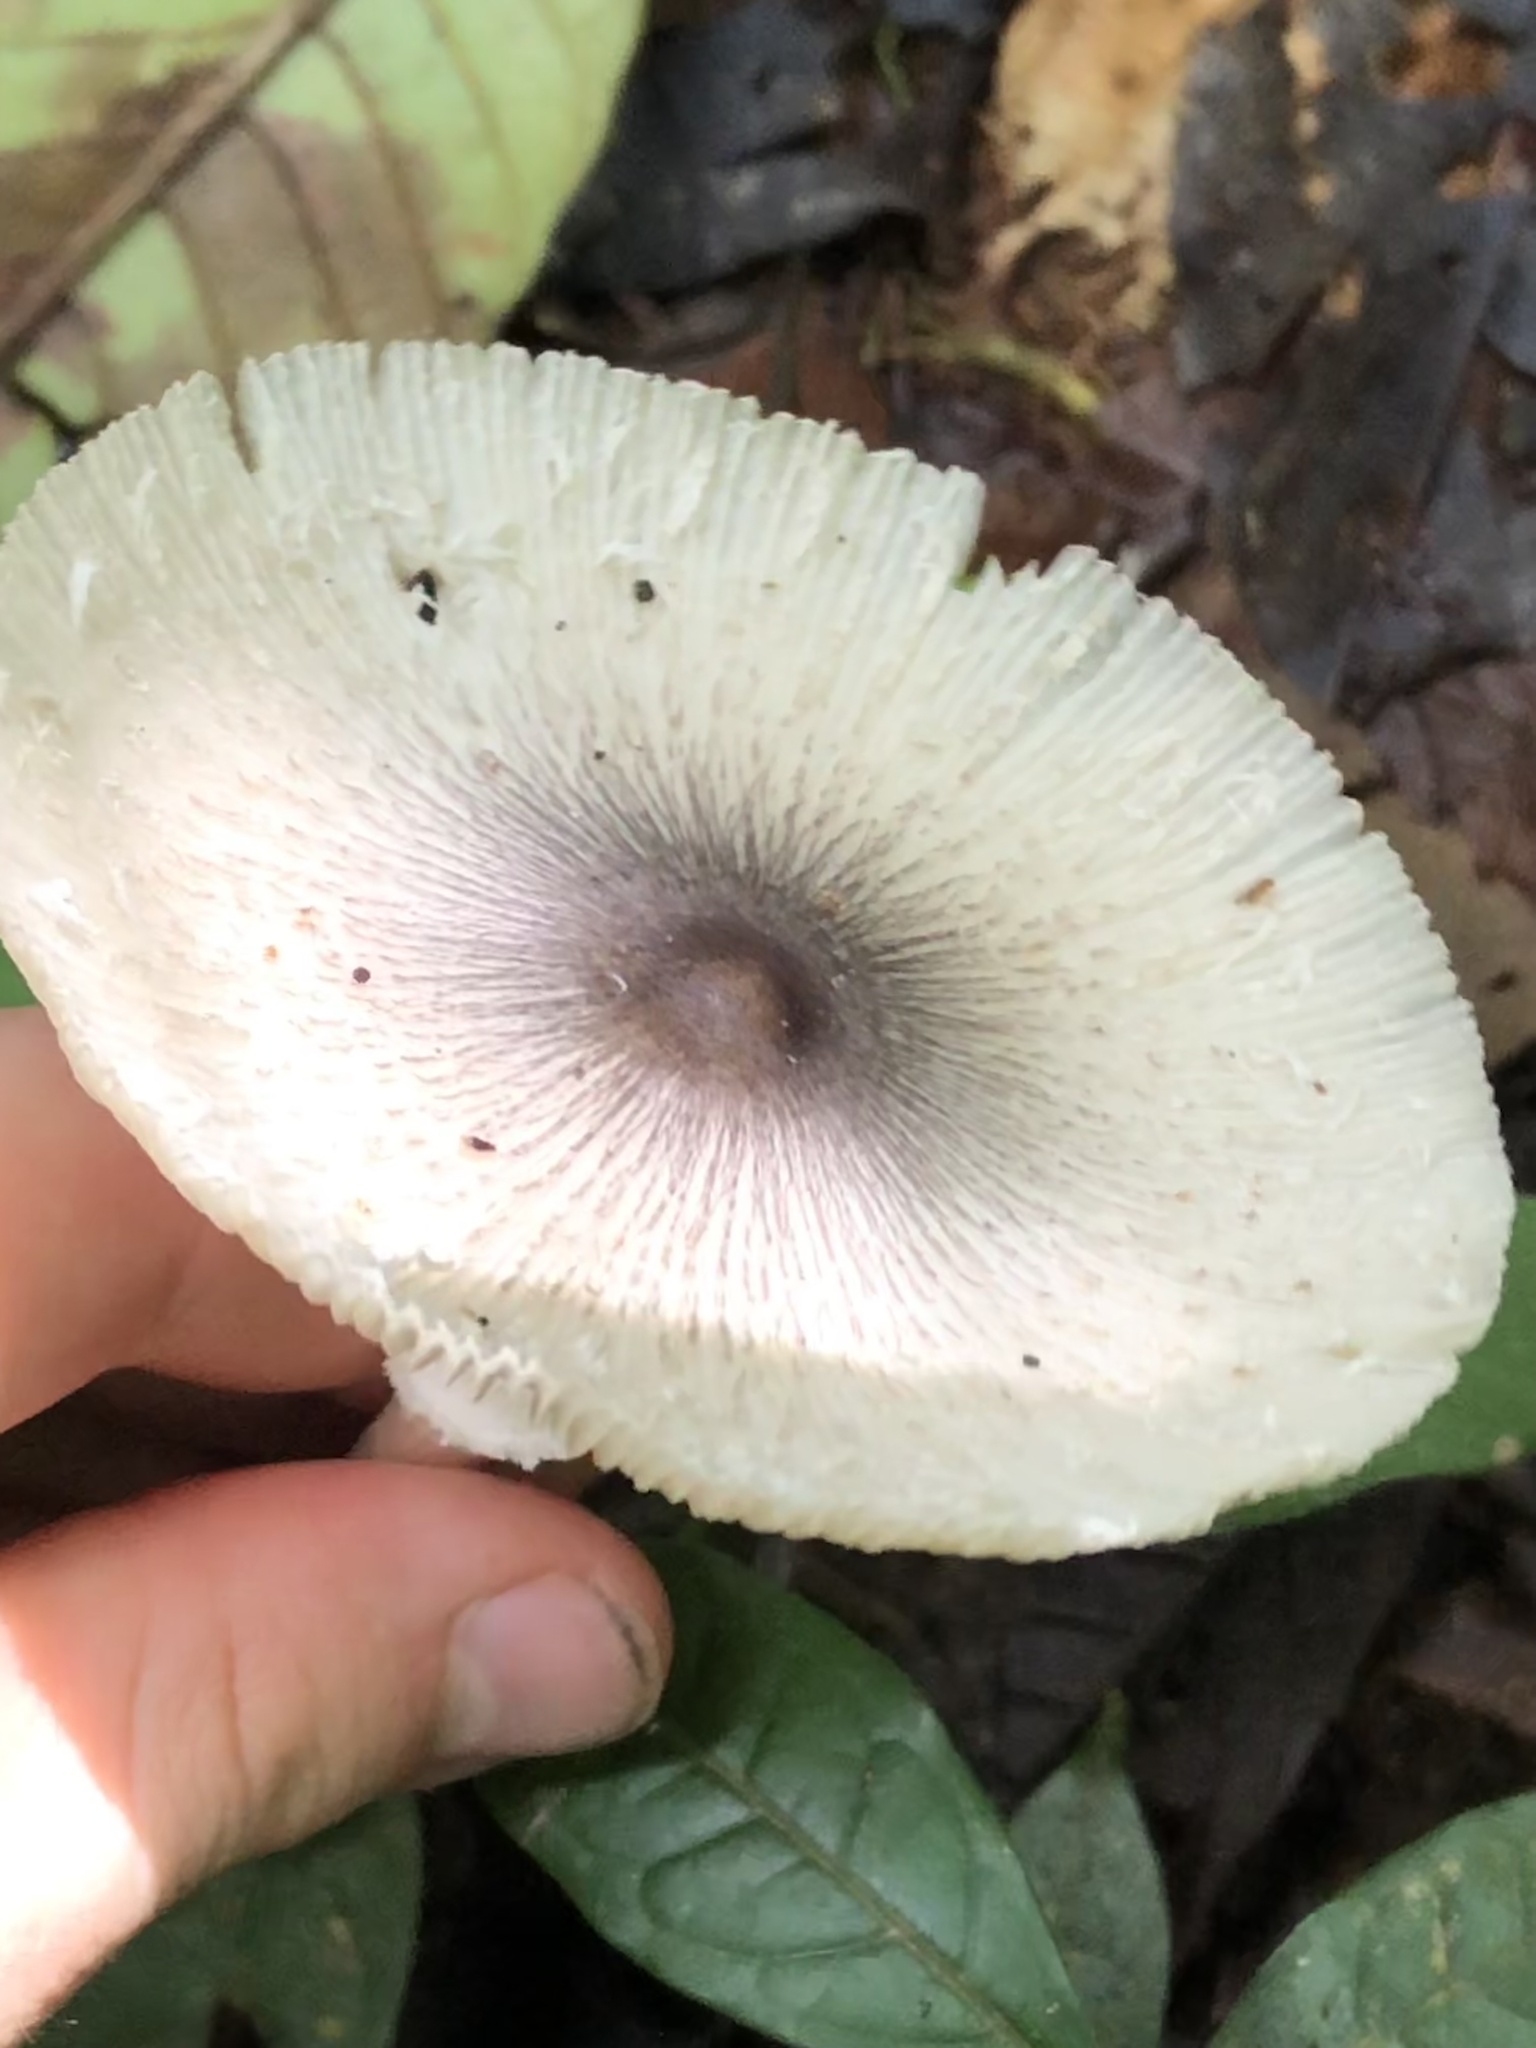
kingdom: Fungi
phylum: Basidiomycota
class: Agaricomycetes
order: Agaricales
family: Agaricaceae
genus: Leucocoprinus
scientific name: Leucocoprinus brebissonii
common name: Skullcap dapperling
